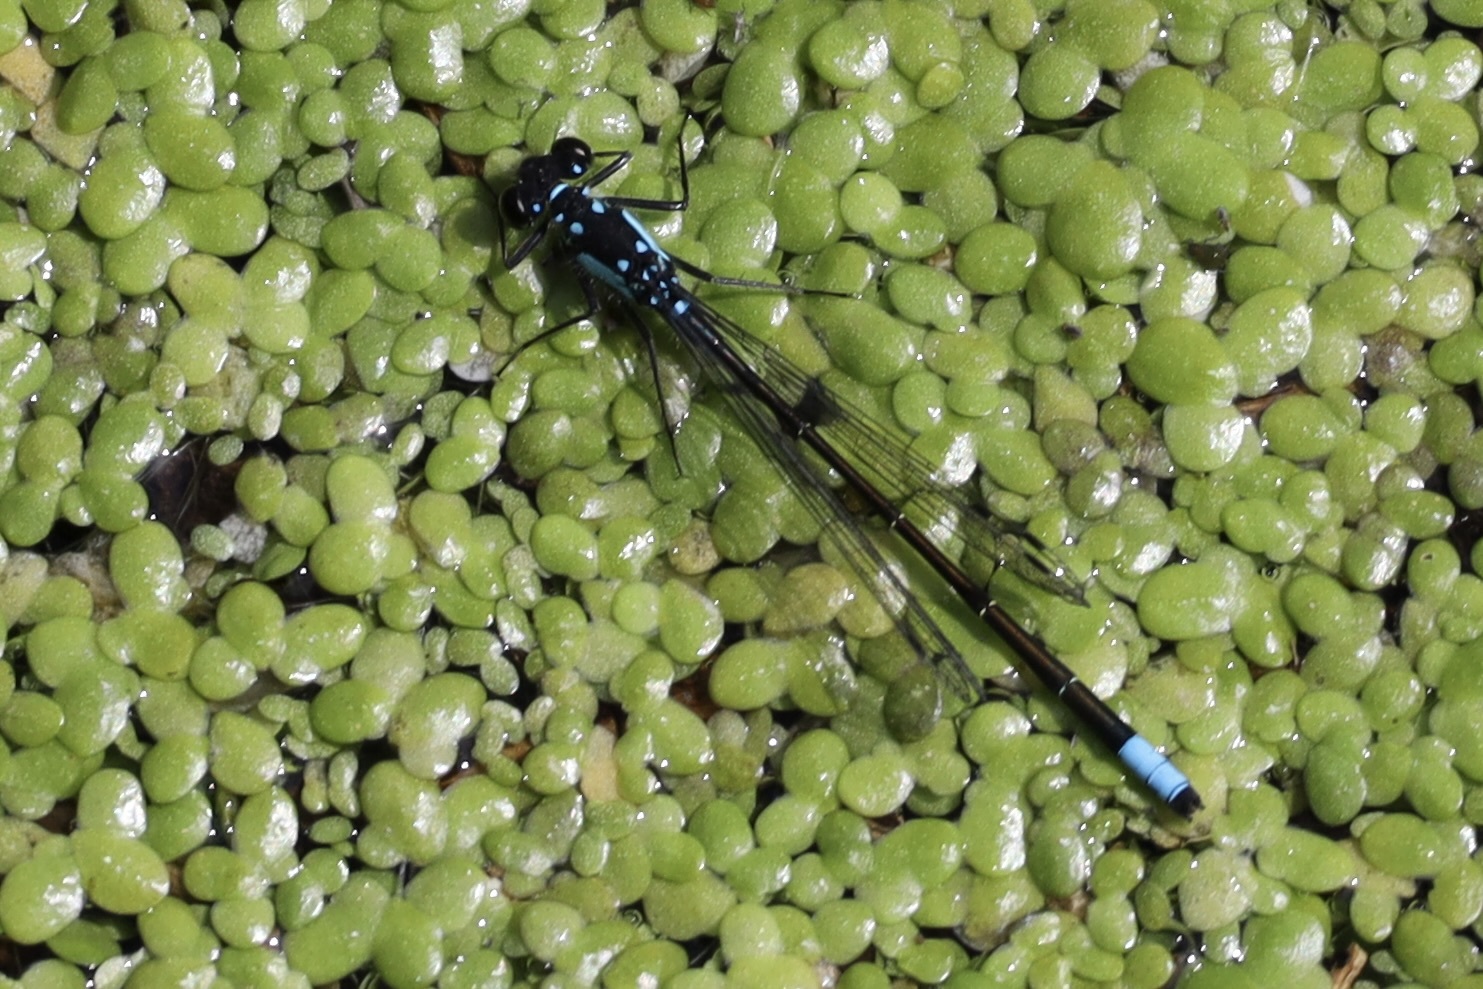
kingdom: Animalia
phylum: Arthropoda
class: Insecta
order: Odonata
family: Coenagrionidae
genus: Ischnura
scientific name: Ischnura cervula
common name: Pacific forktail
